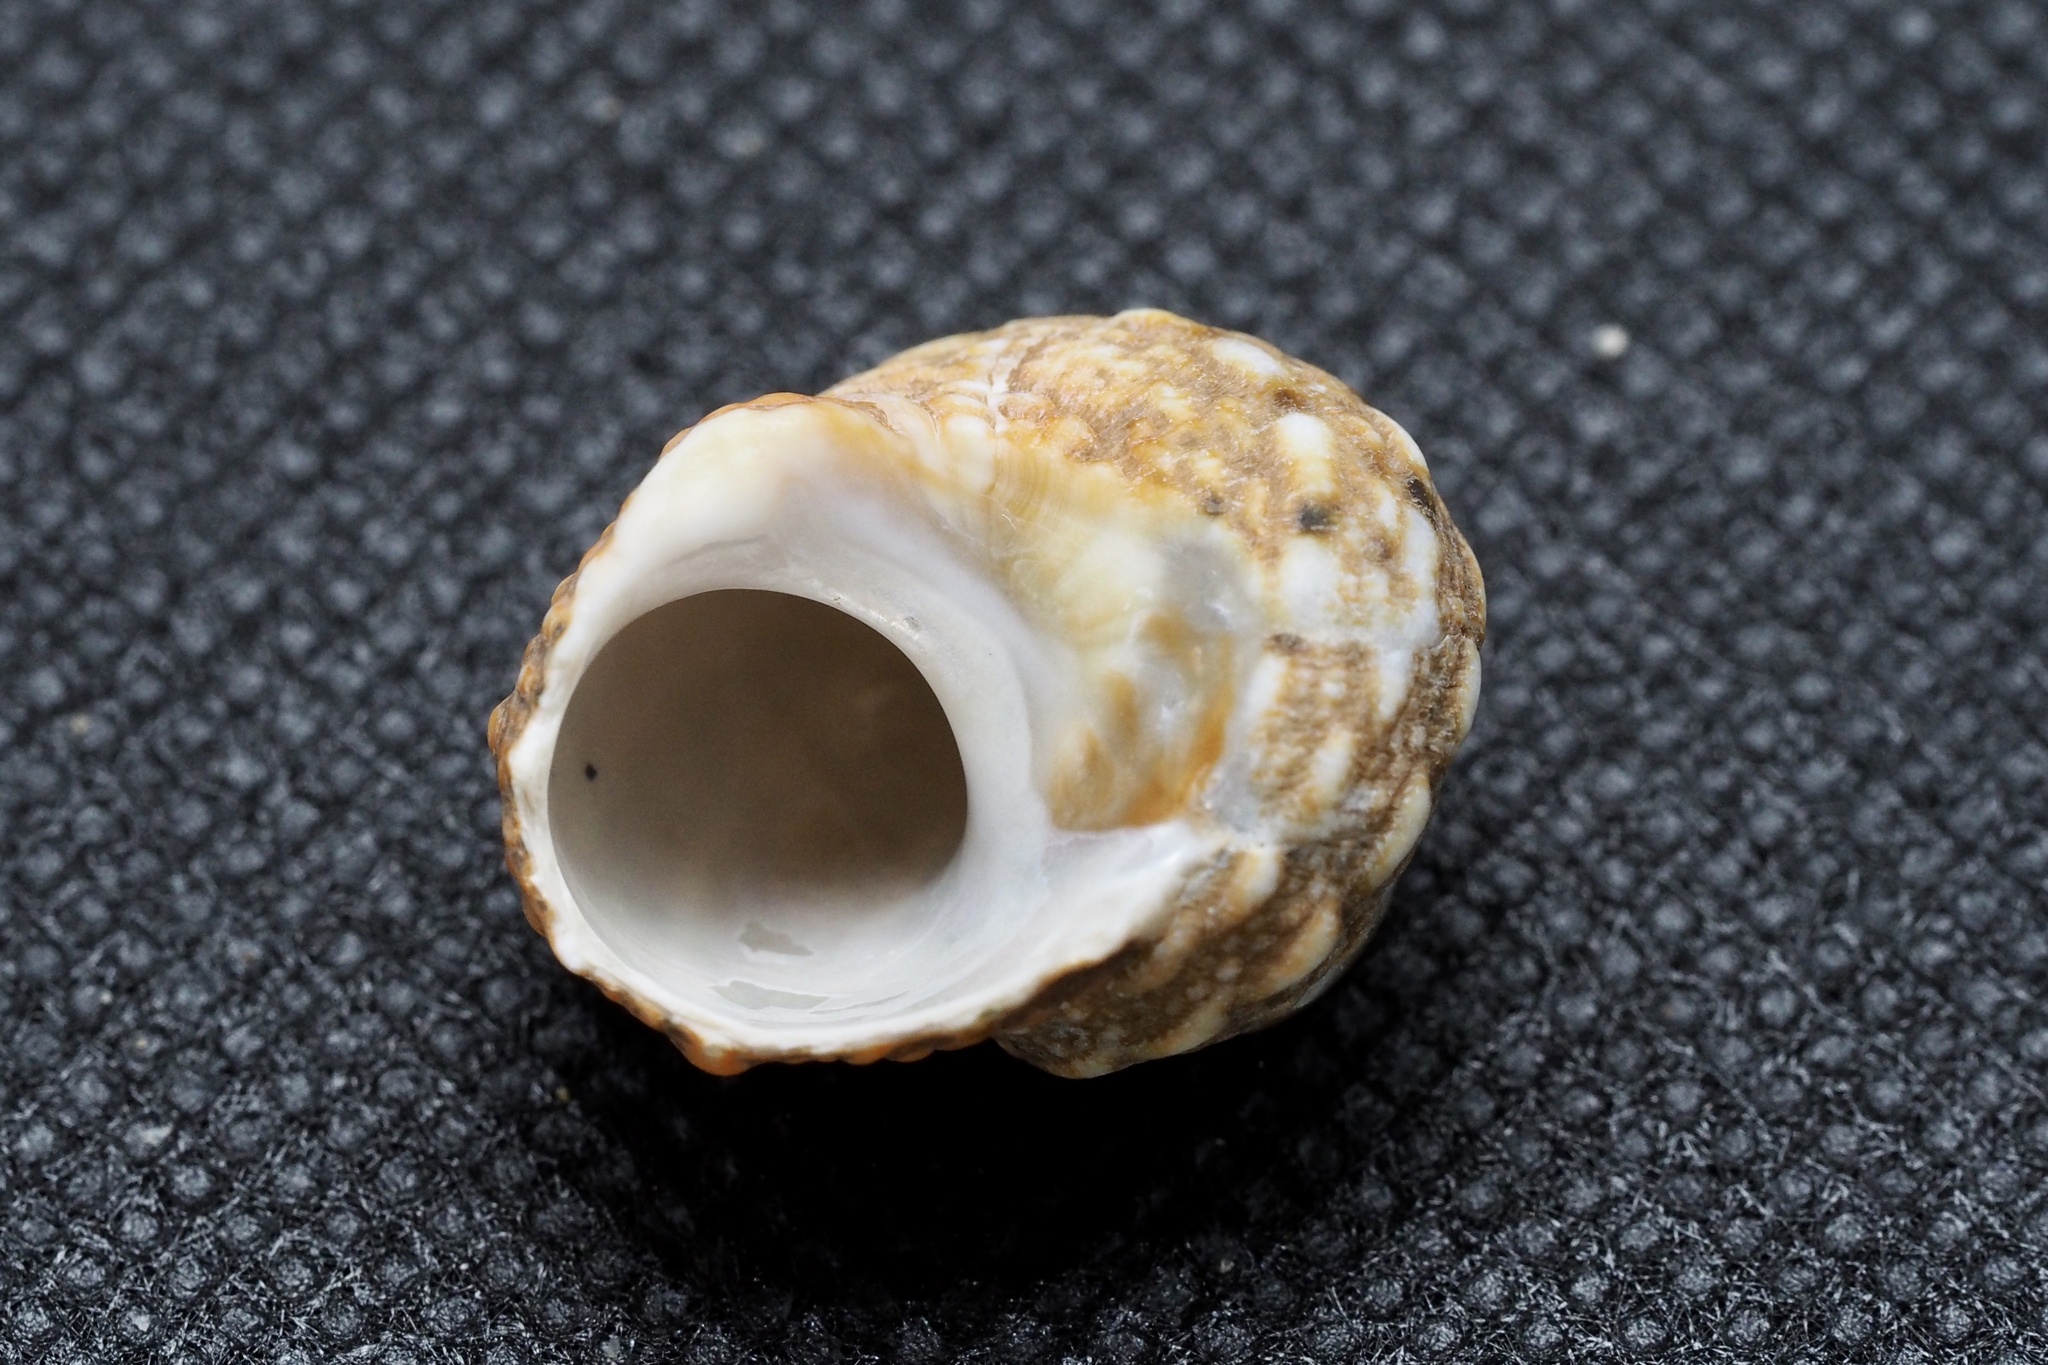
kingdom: Animalia
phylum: Mollusca
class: Gastropoda
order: Trochida
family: Turbinidae
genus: Lunella
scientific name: Lunella correensis
